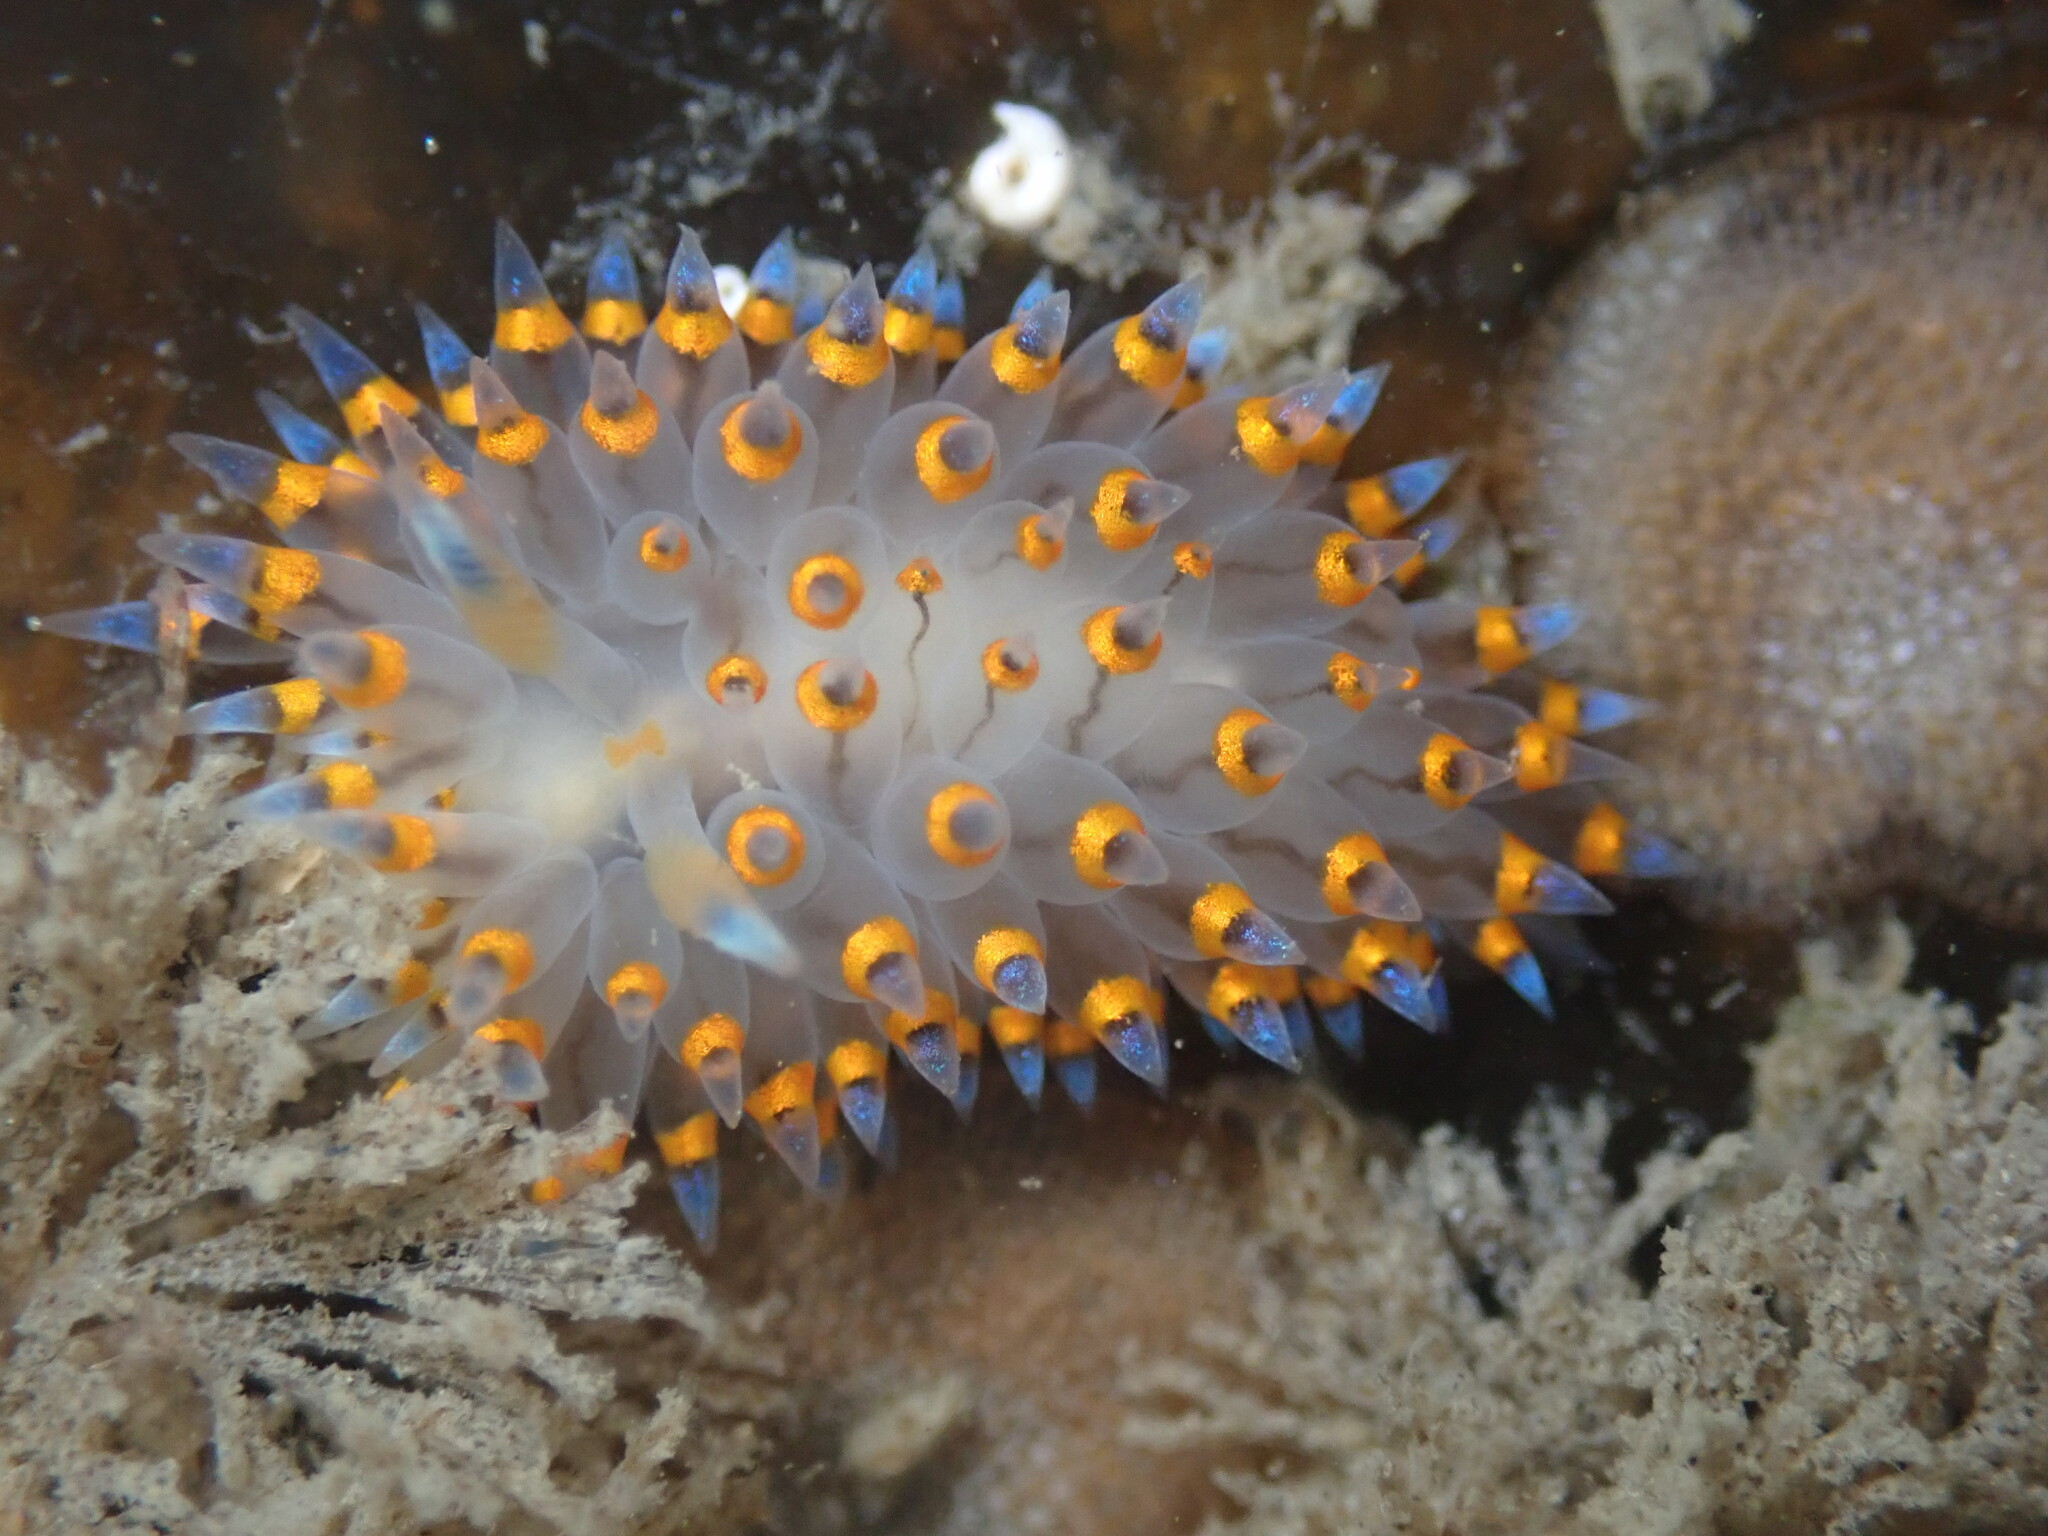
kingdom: Animalia
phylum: Mollusca
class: Gastropoda
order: Nudibranchia
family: Janolidae
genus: Antiopella
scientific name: Antiopella barbarensis
